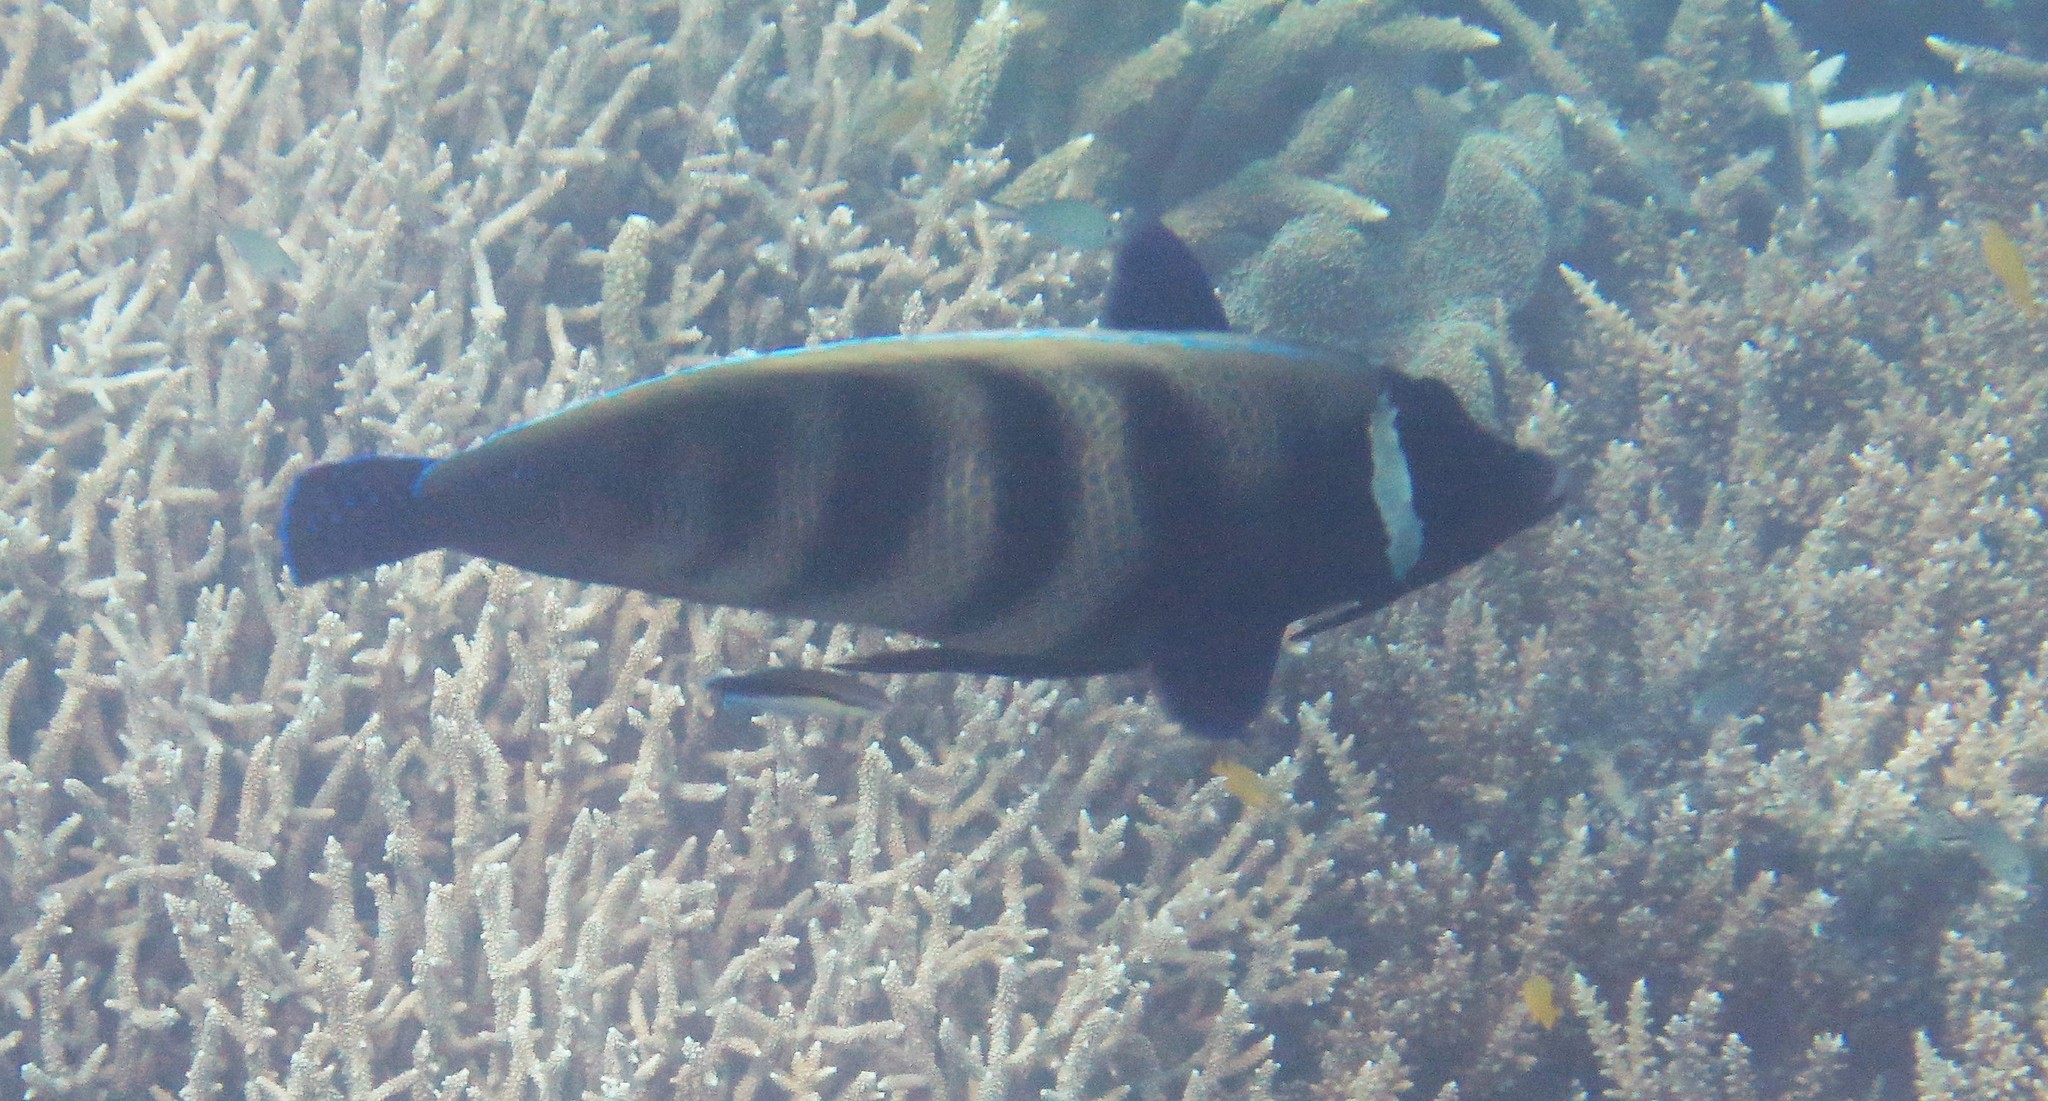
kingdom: Animalia
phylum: Chordata
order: Perciformes
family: Pomacanthidae
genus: Pomacanthus
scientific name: Pomacanthus sexstriatus
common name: Six-banded angelfish
